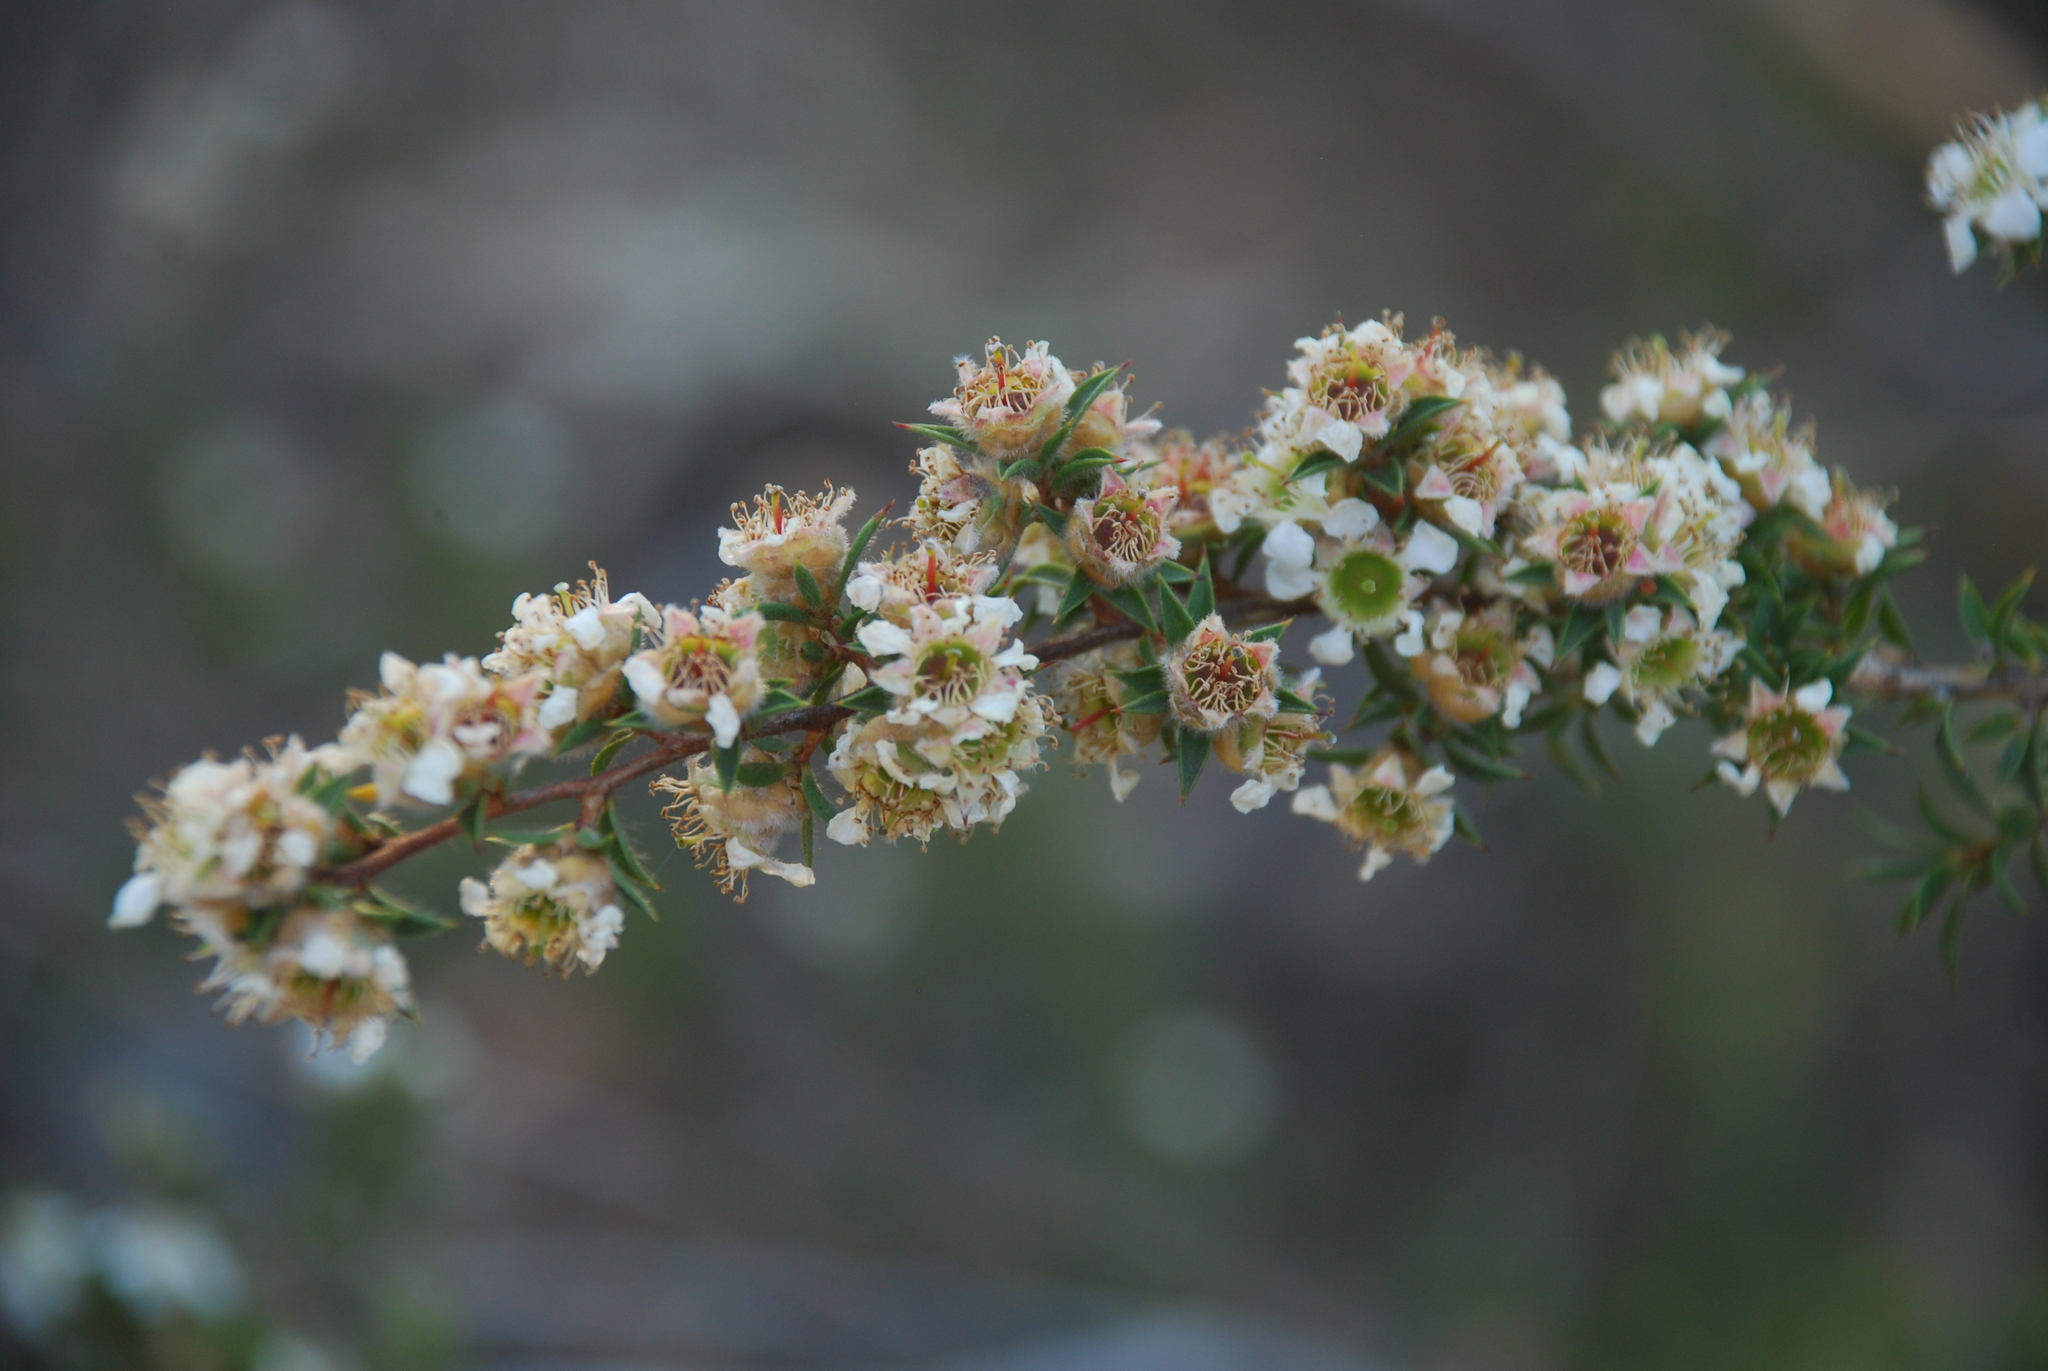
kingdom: Plantae
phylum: Tracheophyta
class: Magnoliopsida
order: Myrtales
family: Myrtaceae
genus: Leptospermum
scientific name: Leptospermum arachnoides
